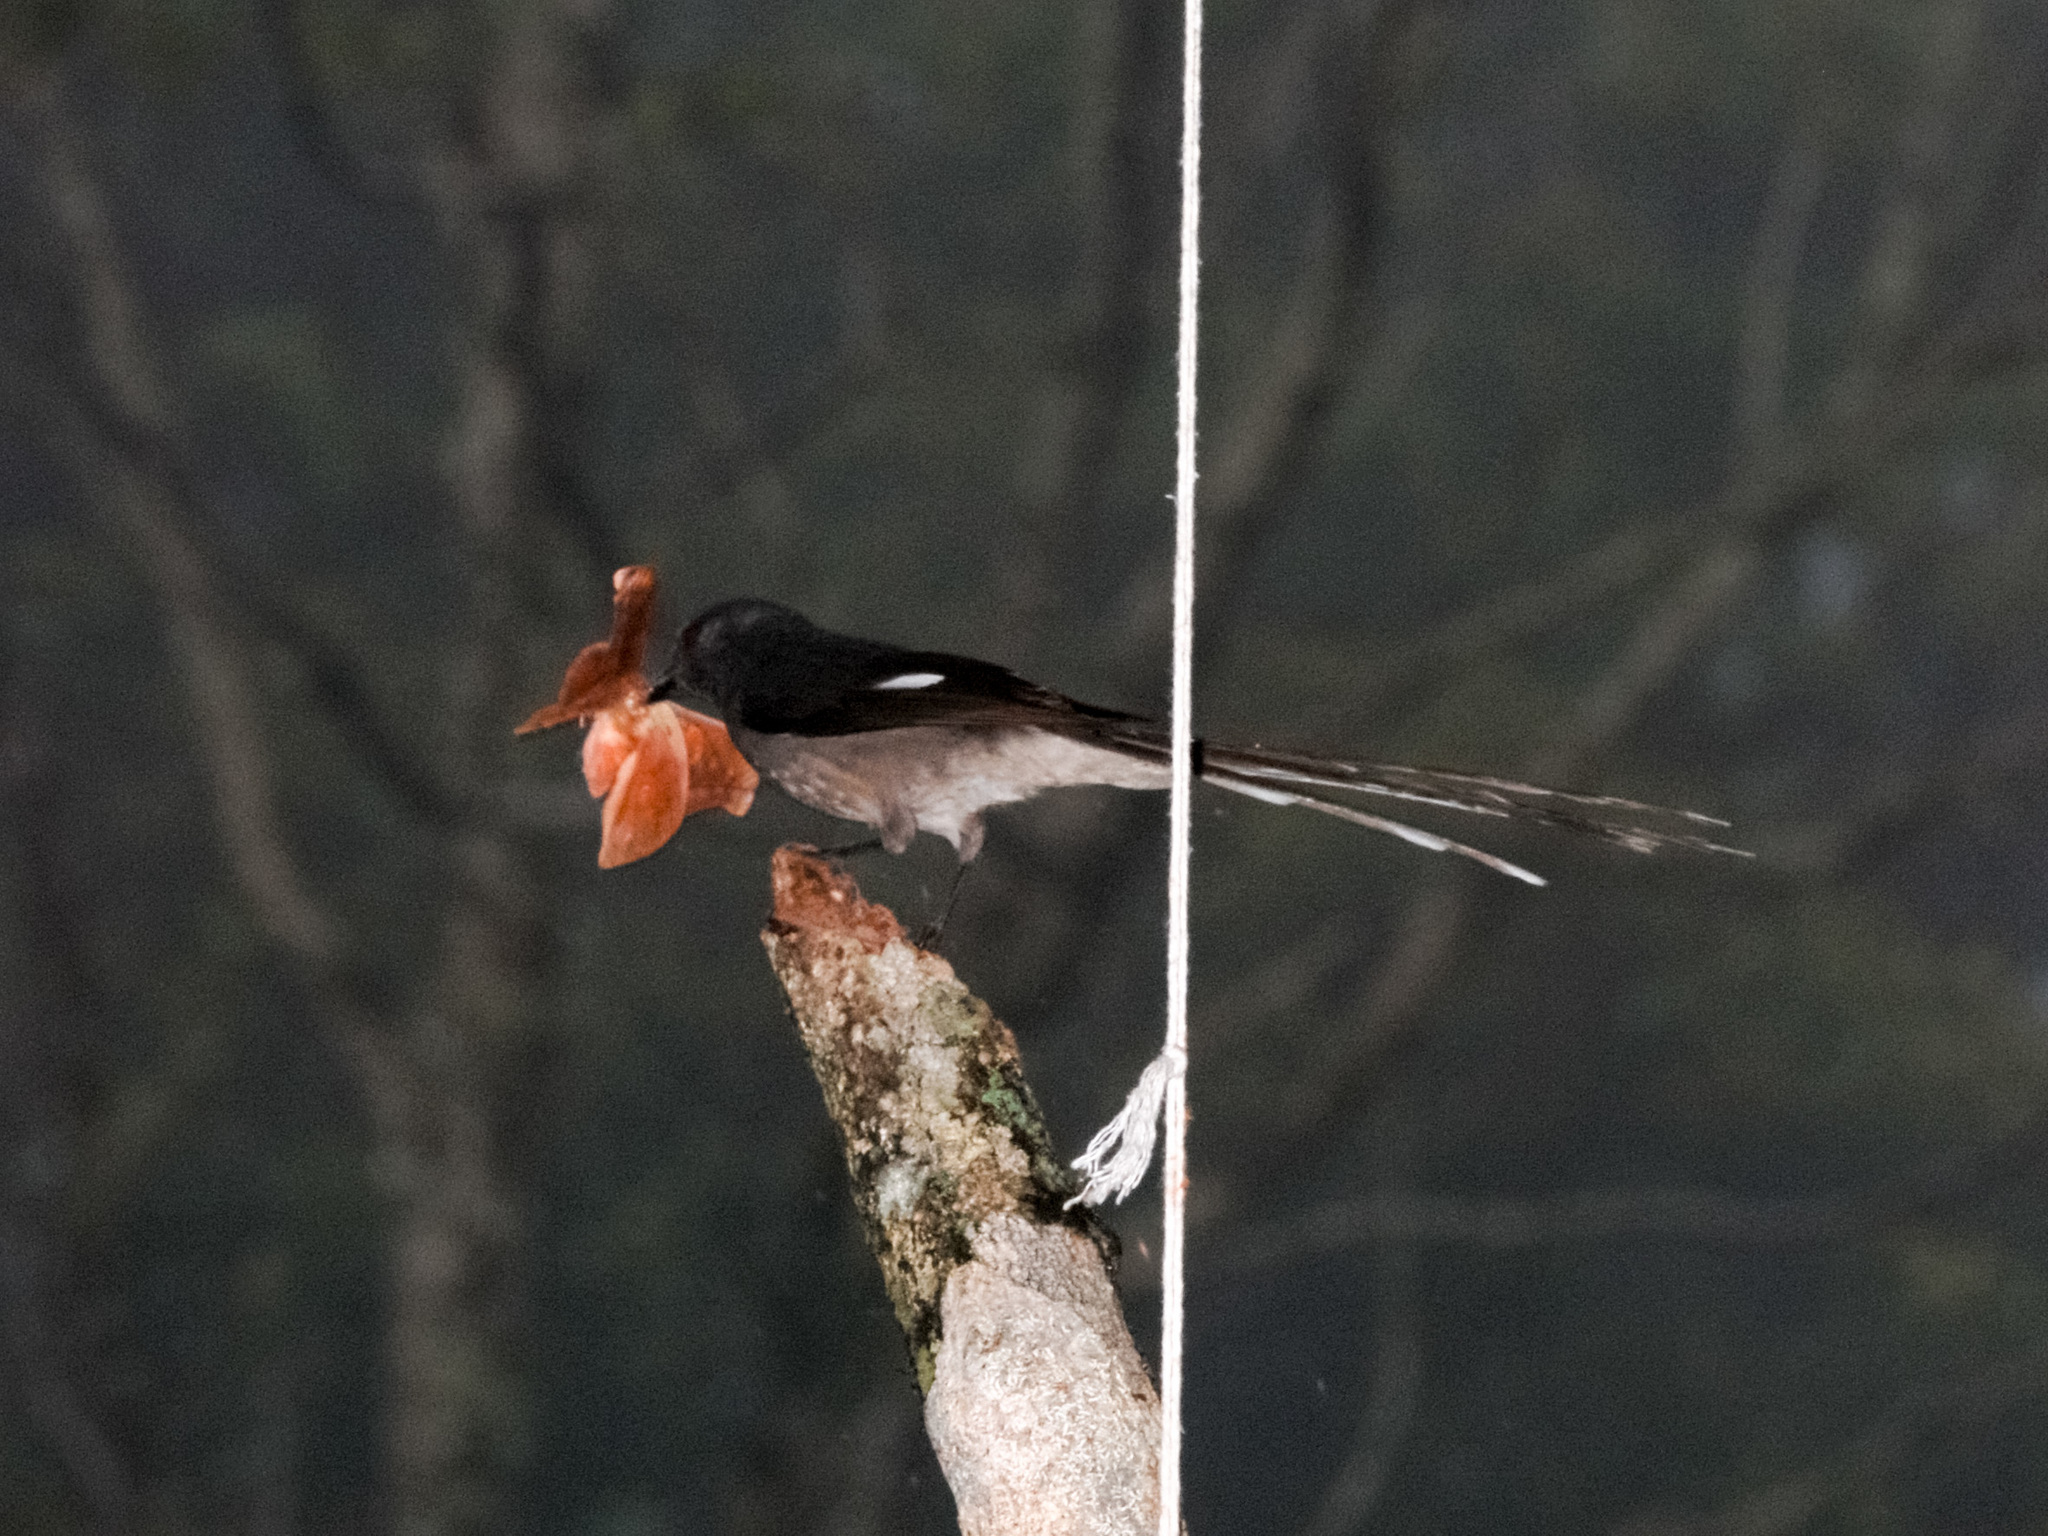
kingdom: Animalia
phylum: Chordata
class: Aves
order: Passeriformes
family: Leiothrichidae
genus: Heterophasia
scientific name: Heterophasia picaoides
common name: Long-tailed sibia
